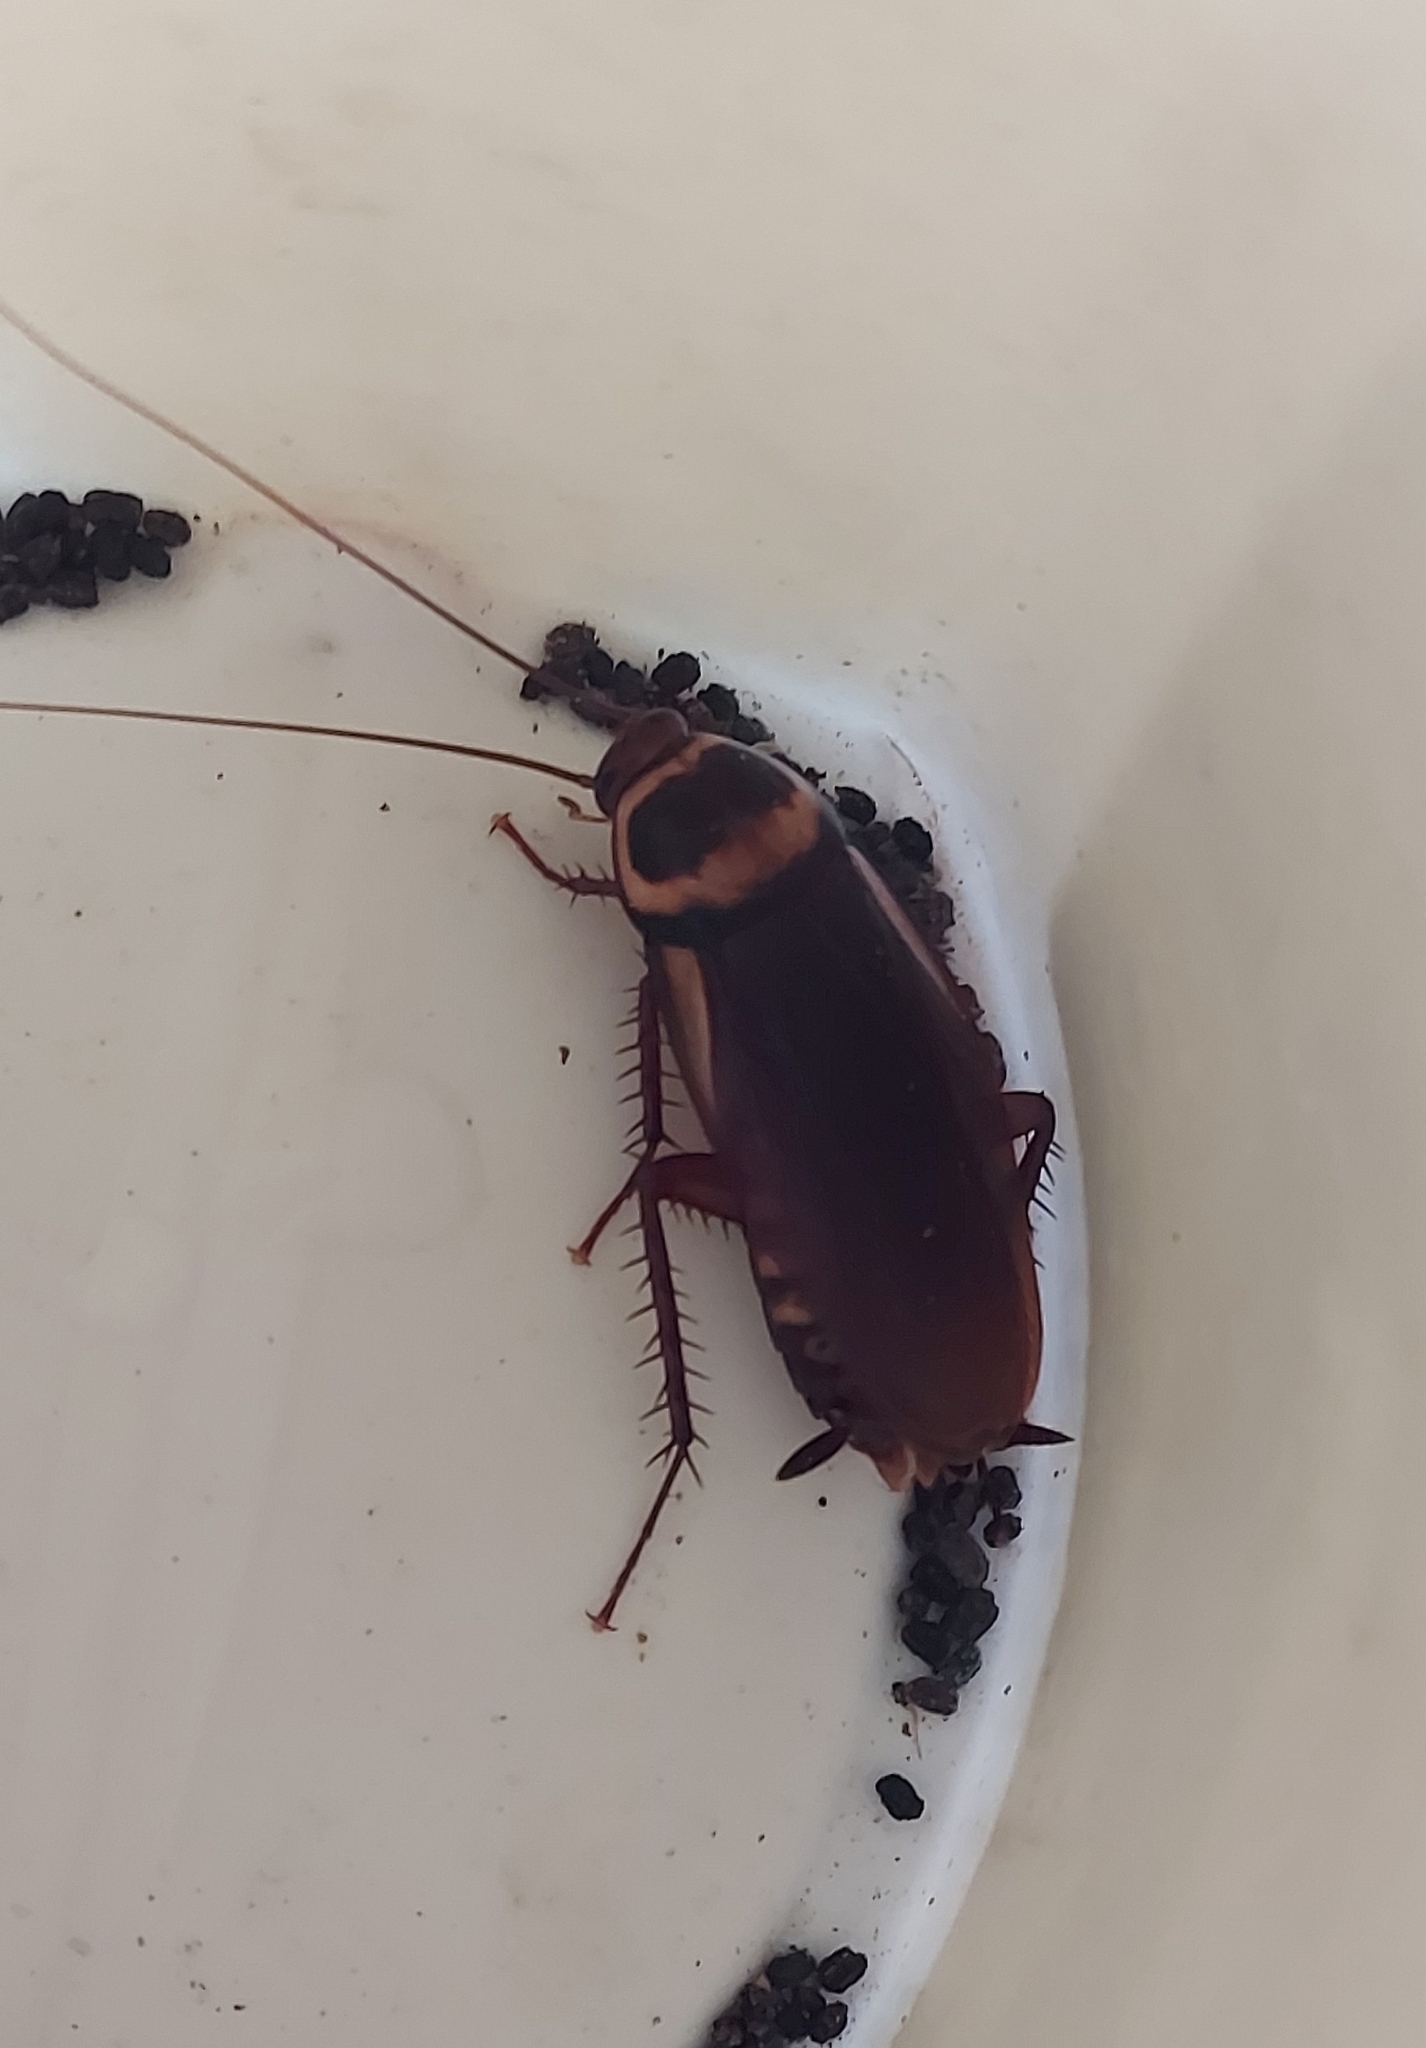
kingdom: Animalia
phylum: Arthropoda
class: Insecta
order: Blattodea
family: Blattidae
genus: Periplaneta
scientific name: Periplaneta australasiae
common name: Australian cockroach
